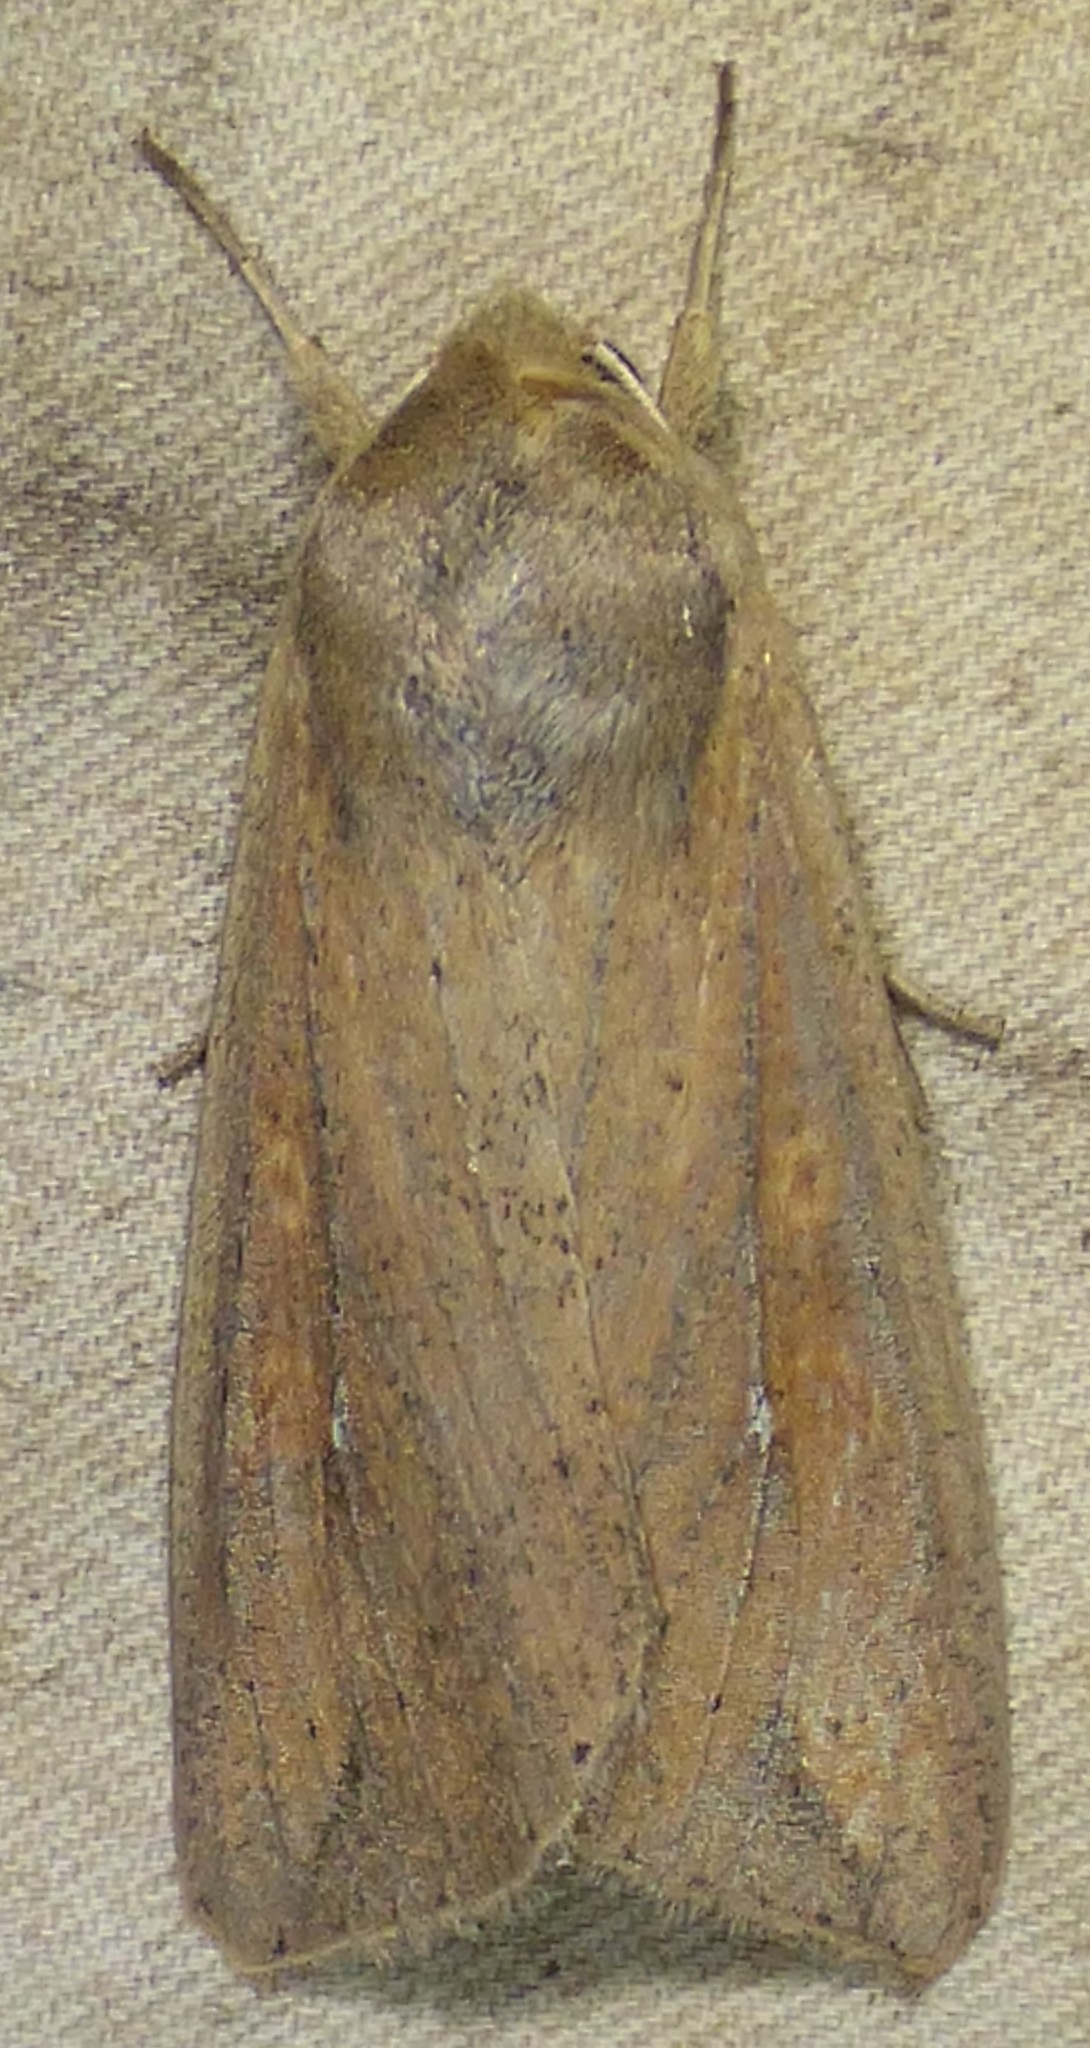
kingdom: Animalia
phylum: Arthropoda
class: Insecta
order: Lepidoptera
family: Noctuidae
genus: Mythimna
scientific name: Mythimna unipuncta
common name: White-speck
